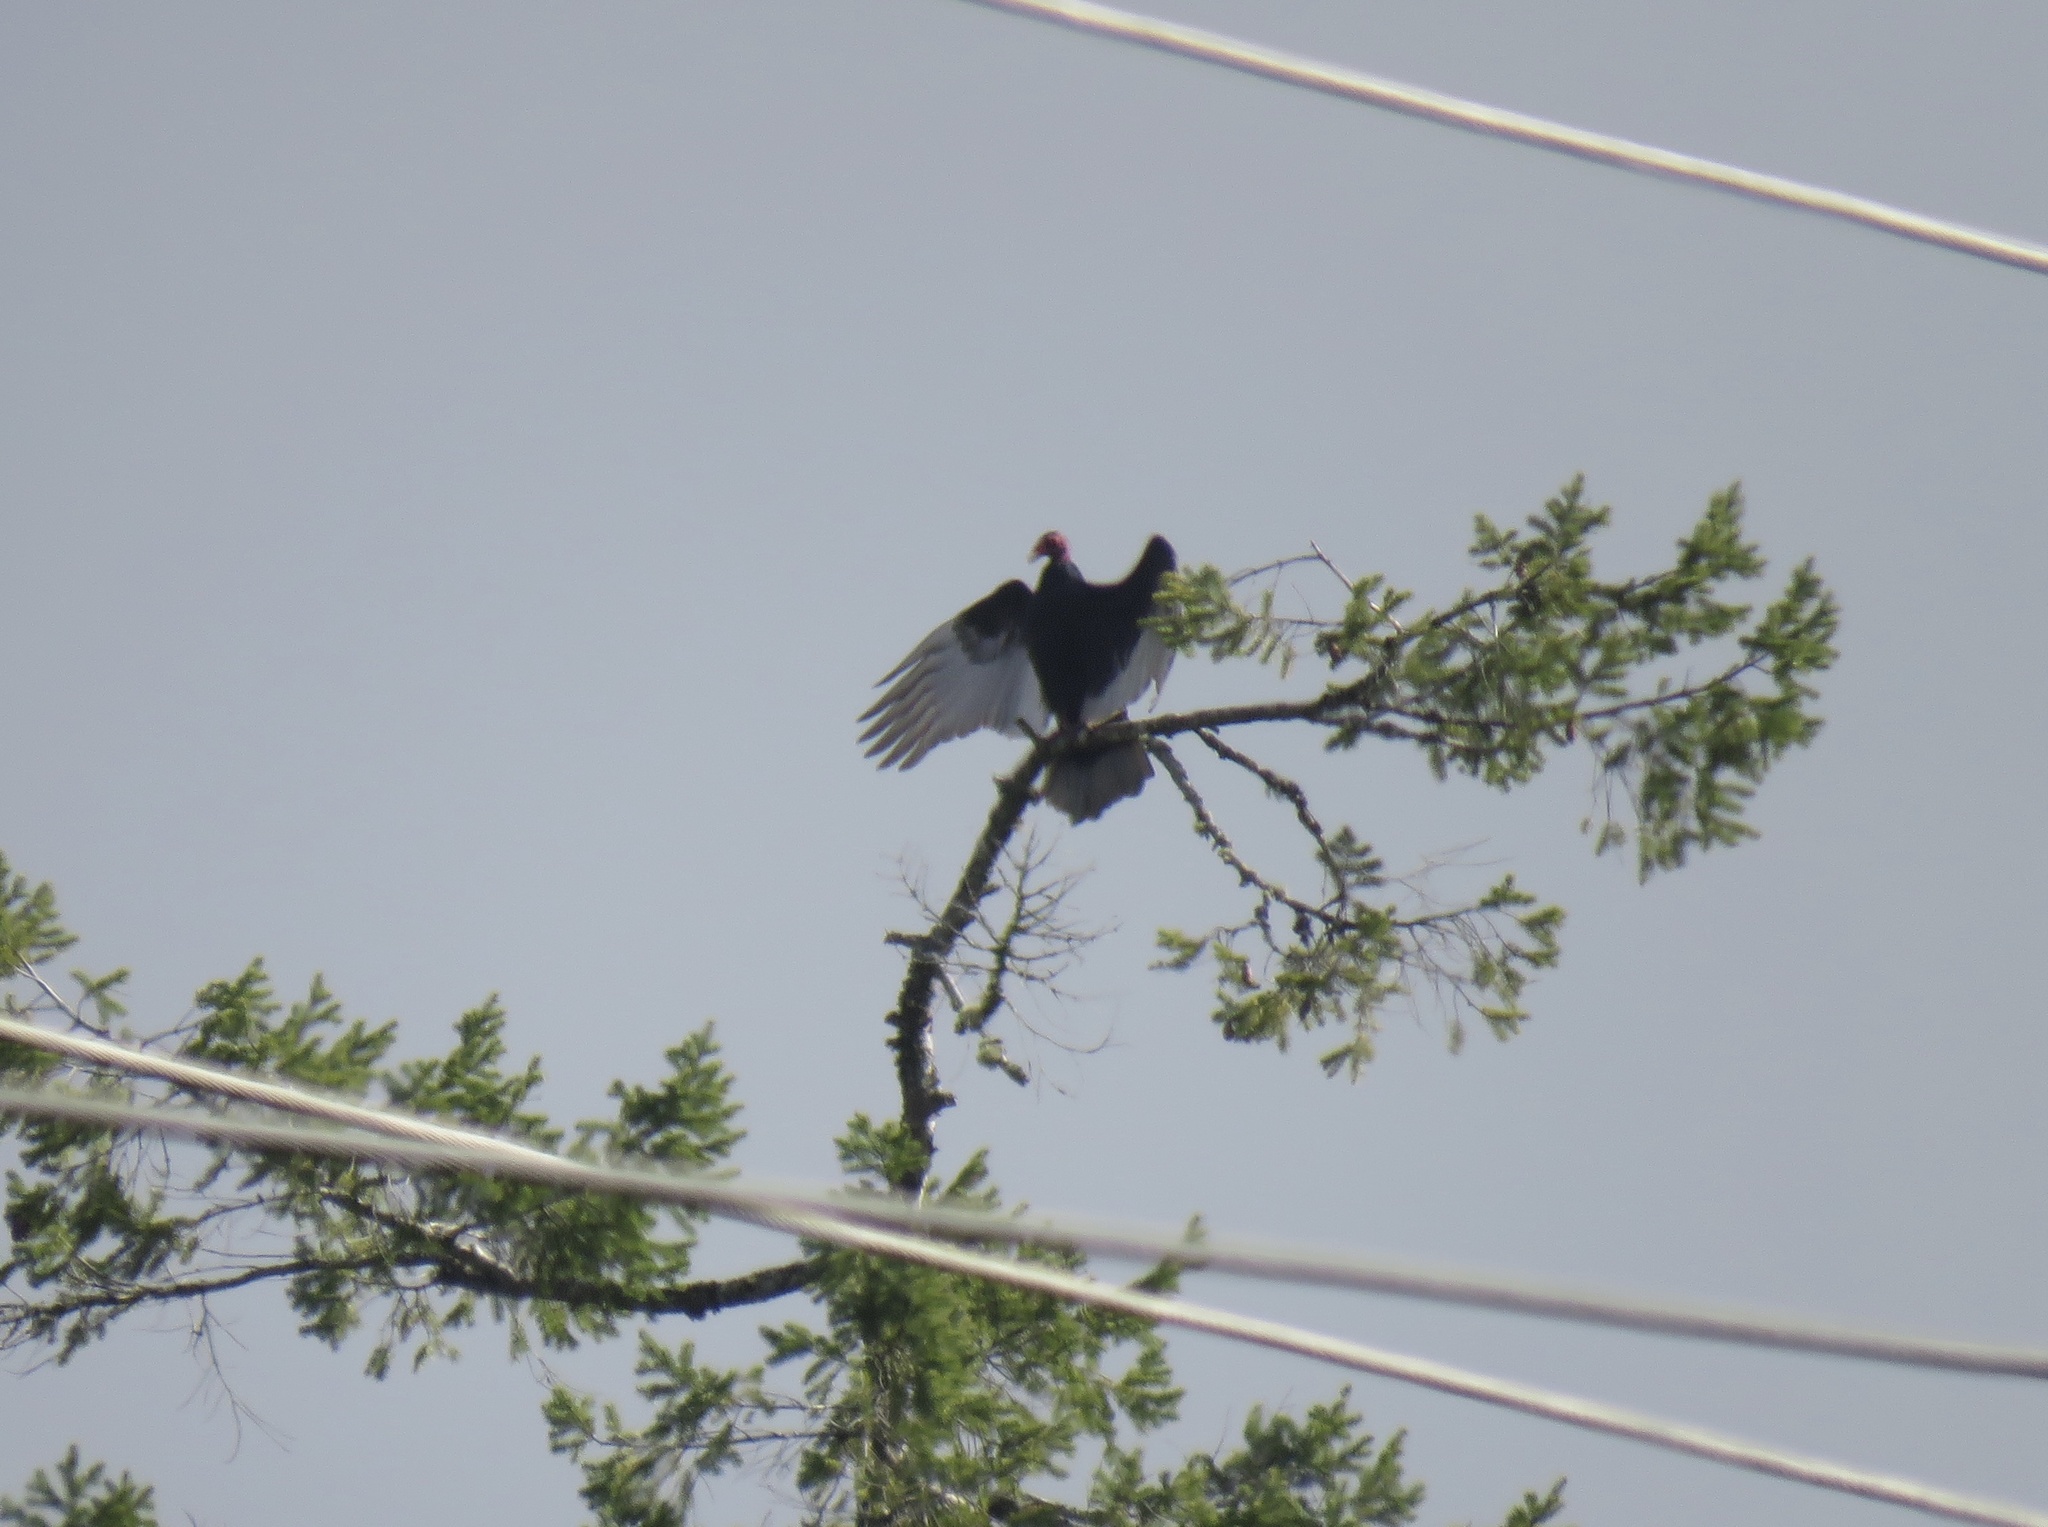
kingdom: Animalia
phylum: Chordata
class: Aves
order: Accipitriformes
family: Cathartidae
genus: Cathartes
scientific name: Cathartes aura
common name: Turkey vulture
